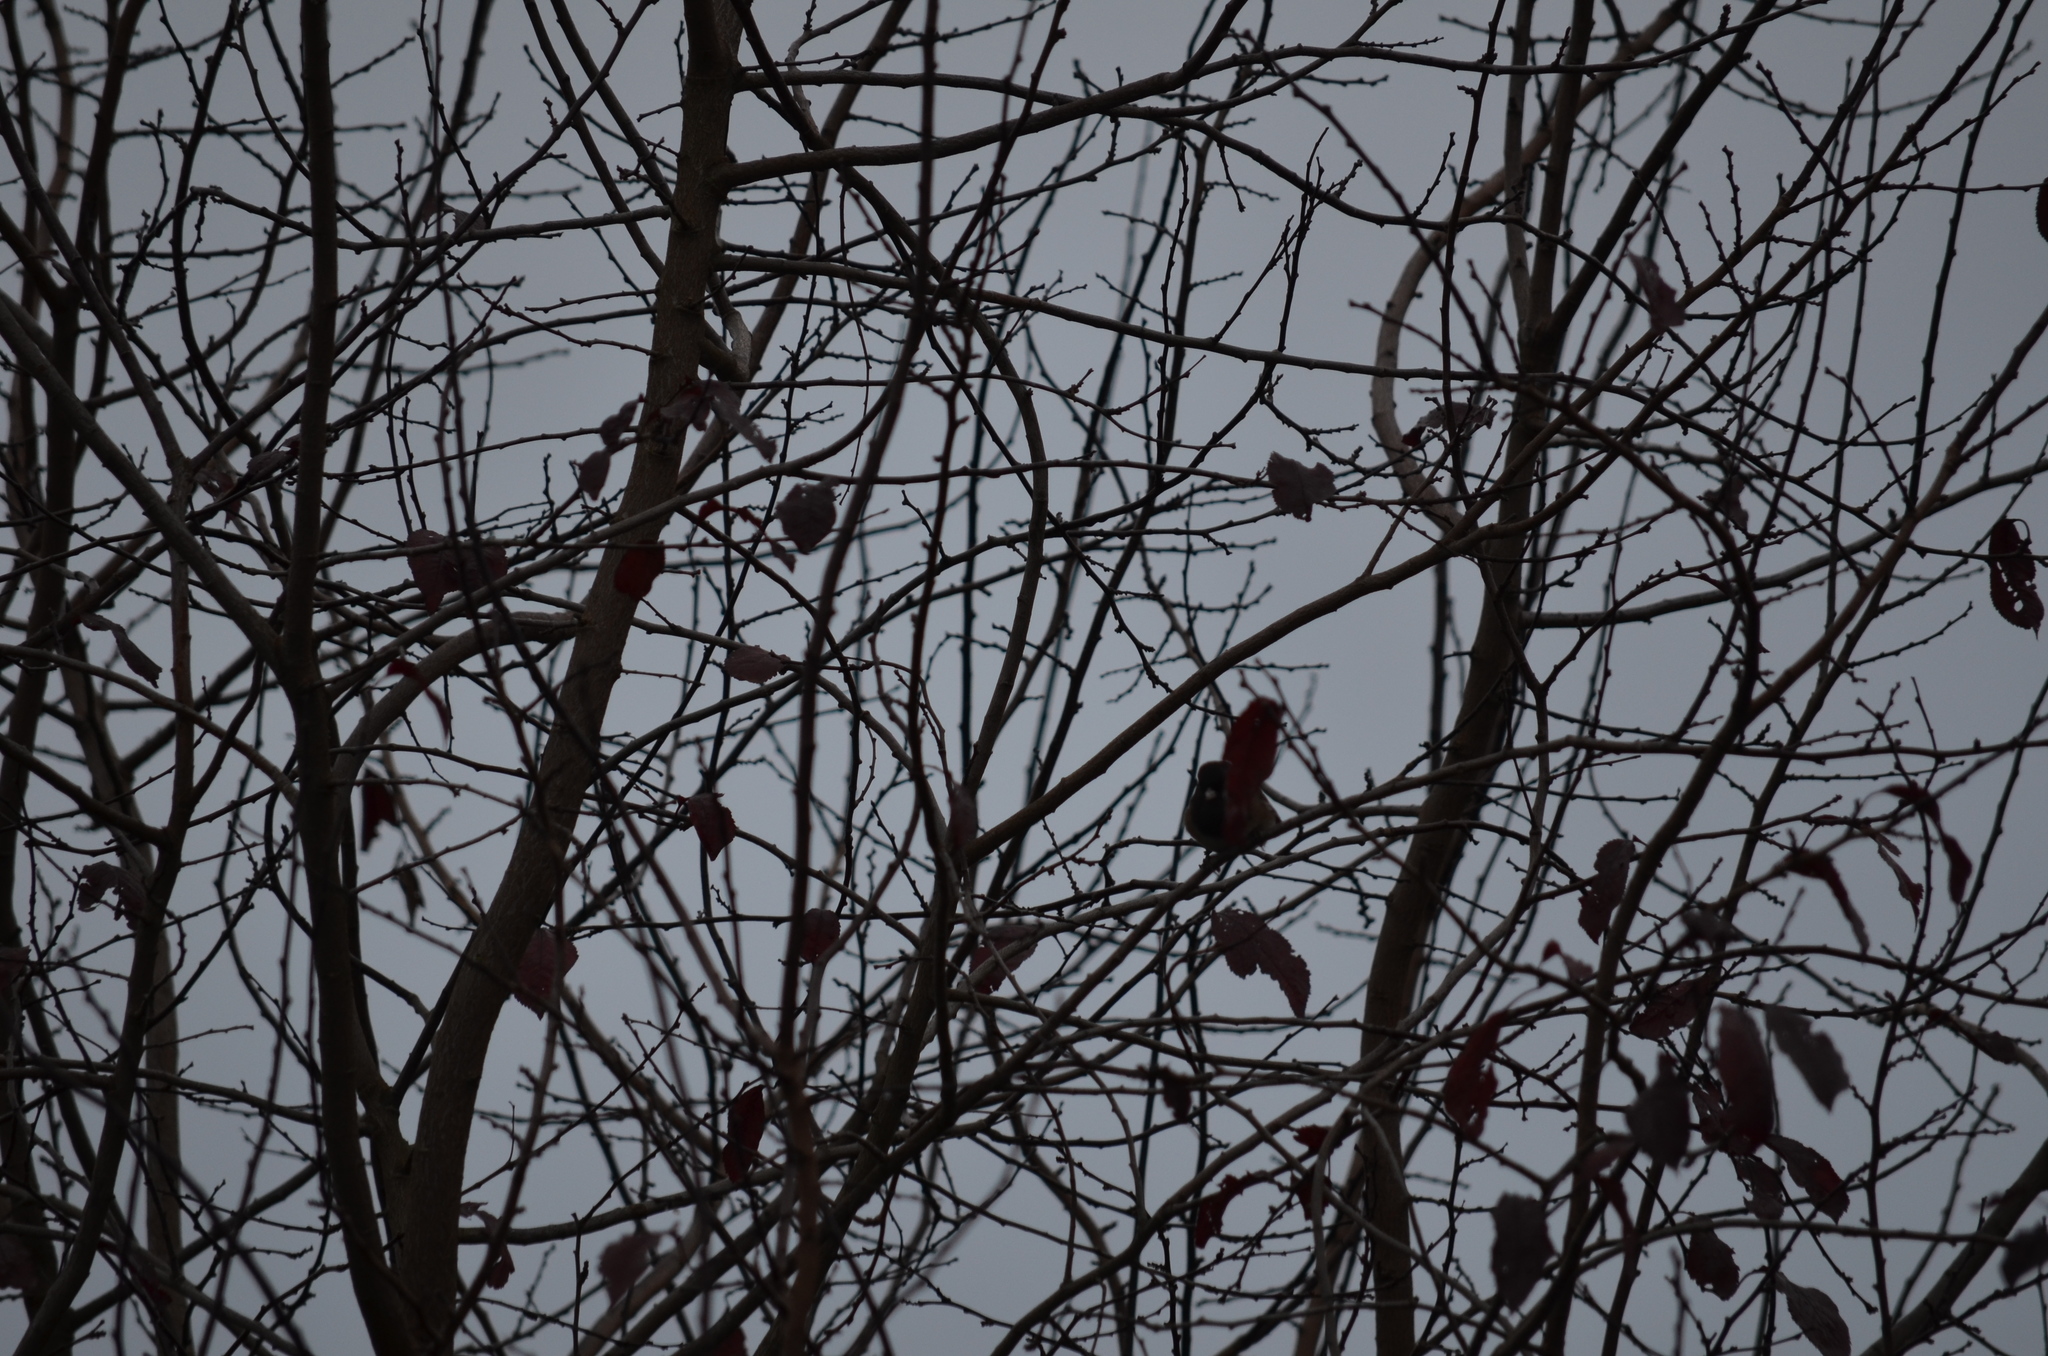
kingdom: Animalia
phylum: Chordata
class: Aves
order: Passeriformes
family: Passerellidae
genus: Junco
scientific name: Junco hyemalis
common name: Dark-eyed junco
